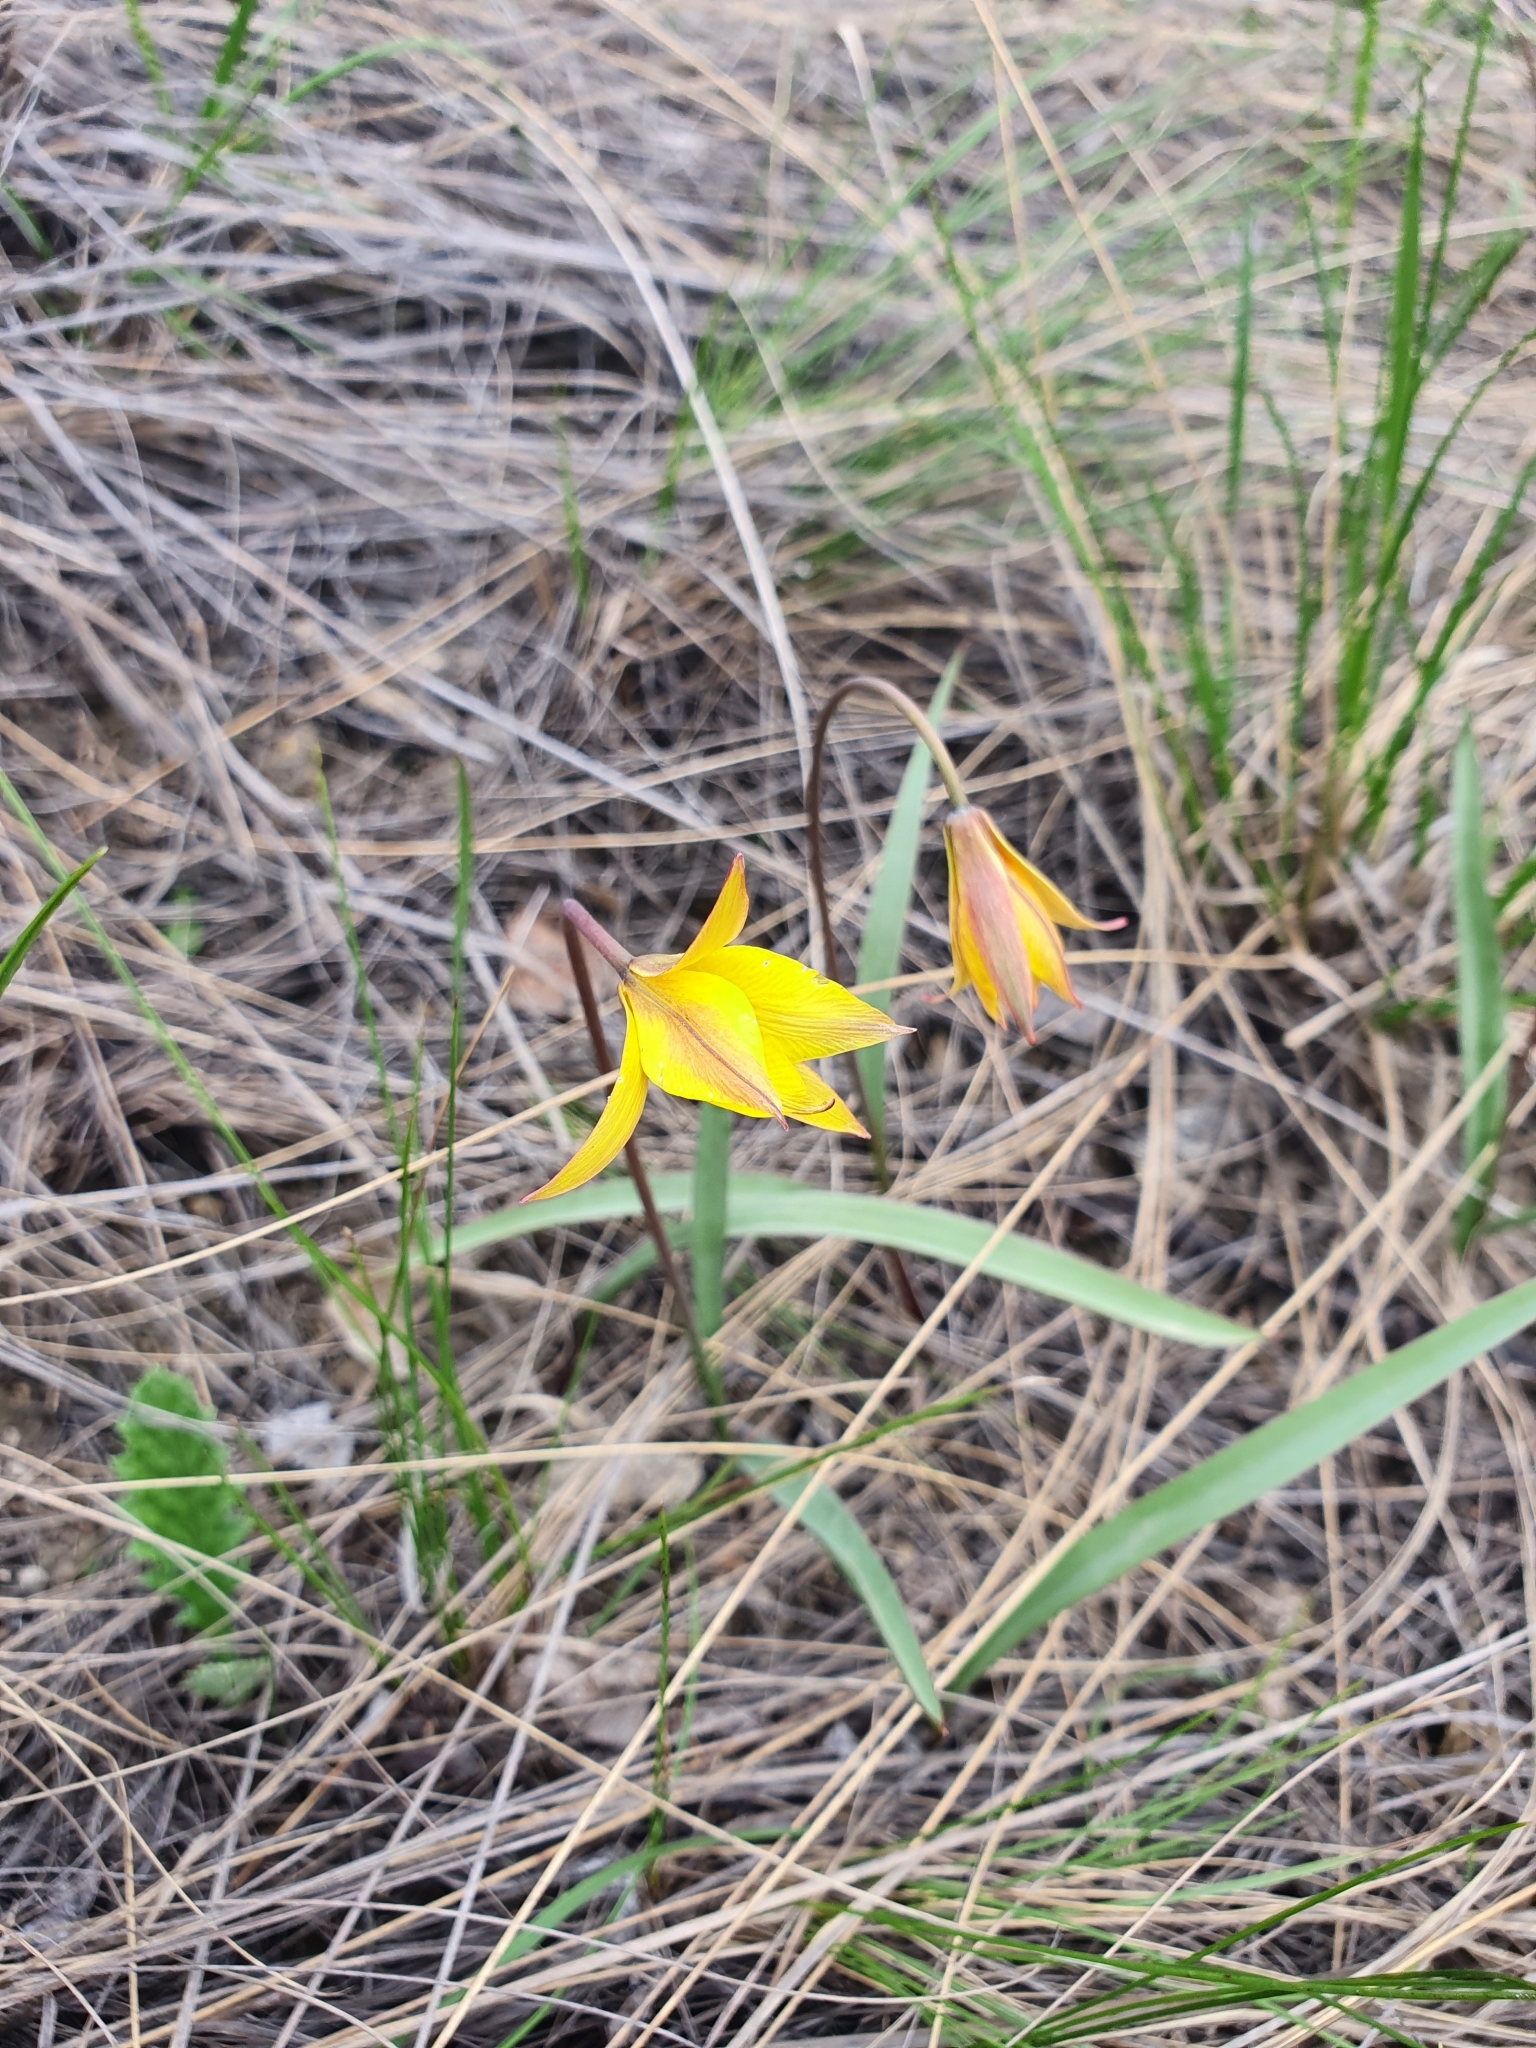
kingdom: Plantae
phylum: Tracheophyta
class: Liliopsida
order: Liliales
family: Liliaceae
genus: Tulipa
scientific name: Tulipa sylvestris
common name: Wild tulip
